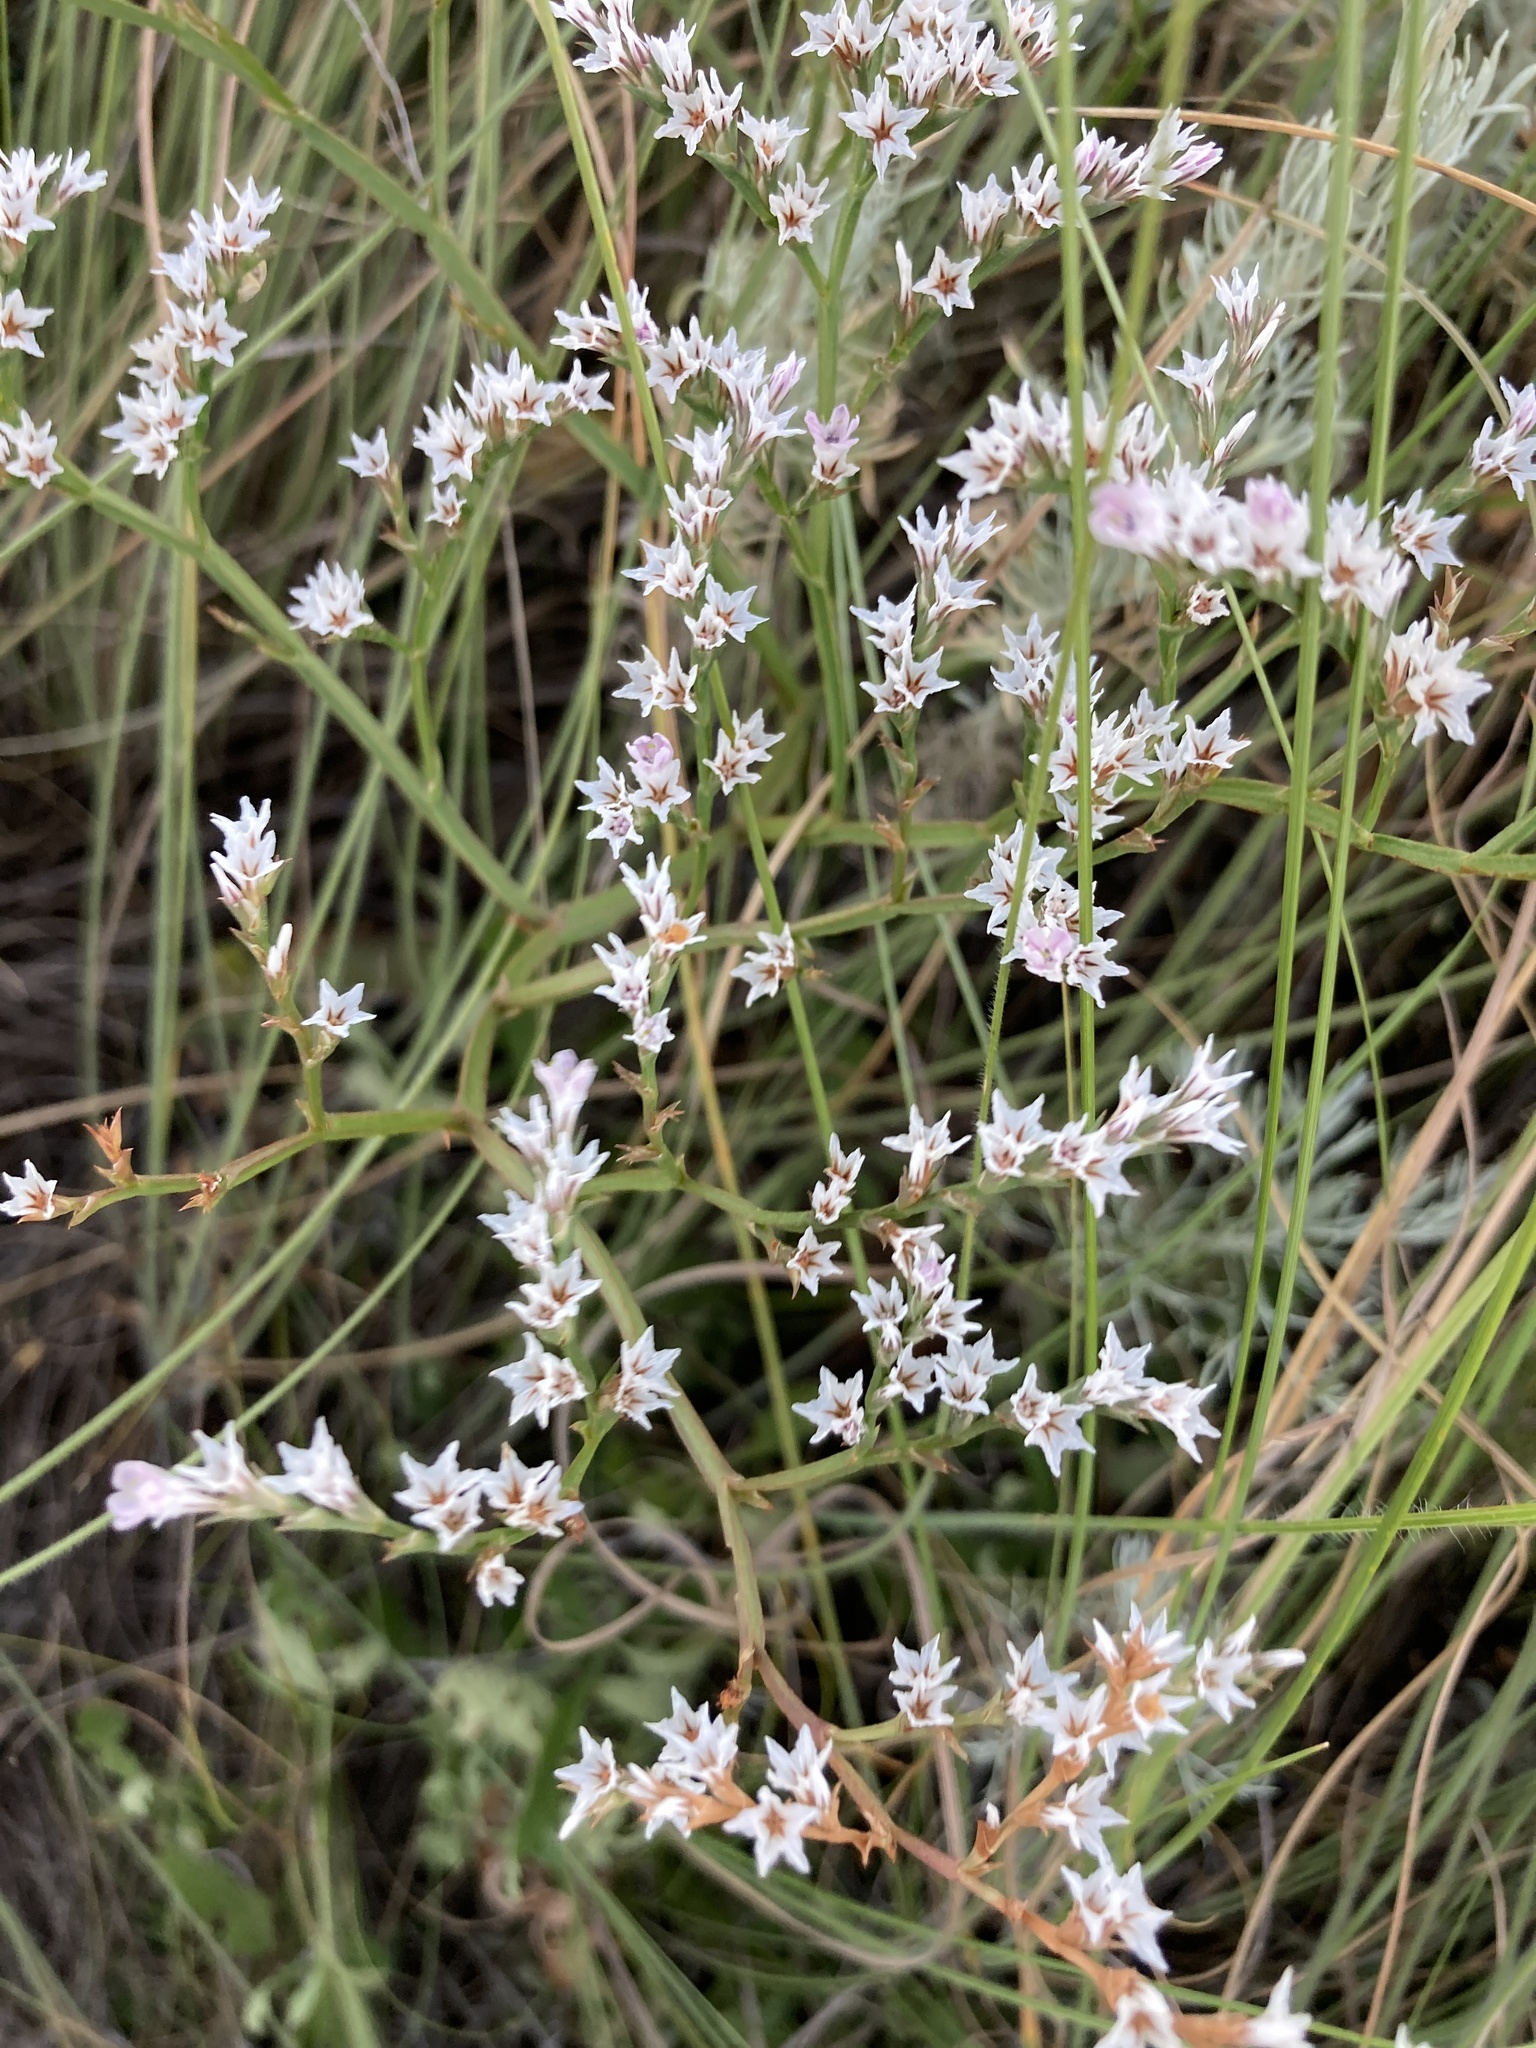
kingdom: Plantae
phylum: Tracheophyta
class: Magnoliopsida
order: Caryophyllales
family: Plumbaginaceae
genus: Goniolimon
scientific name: Goniolimon tataricum
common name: Statice
